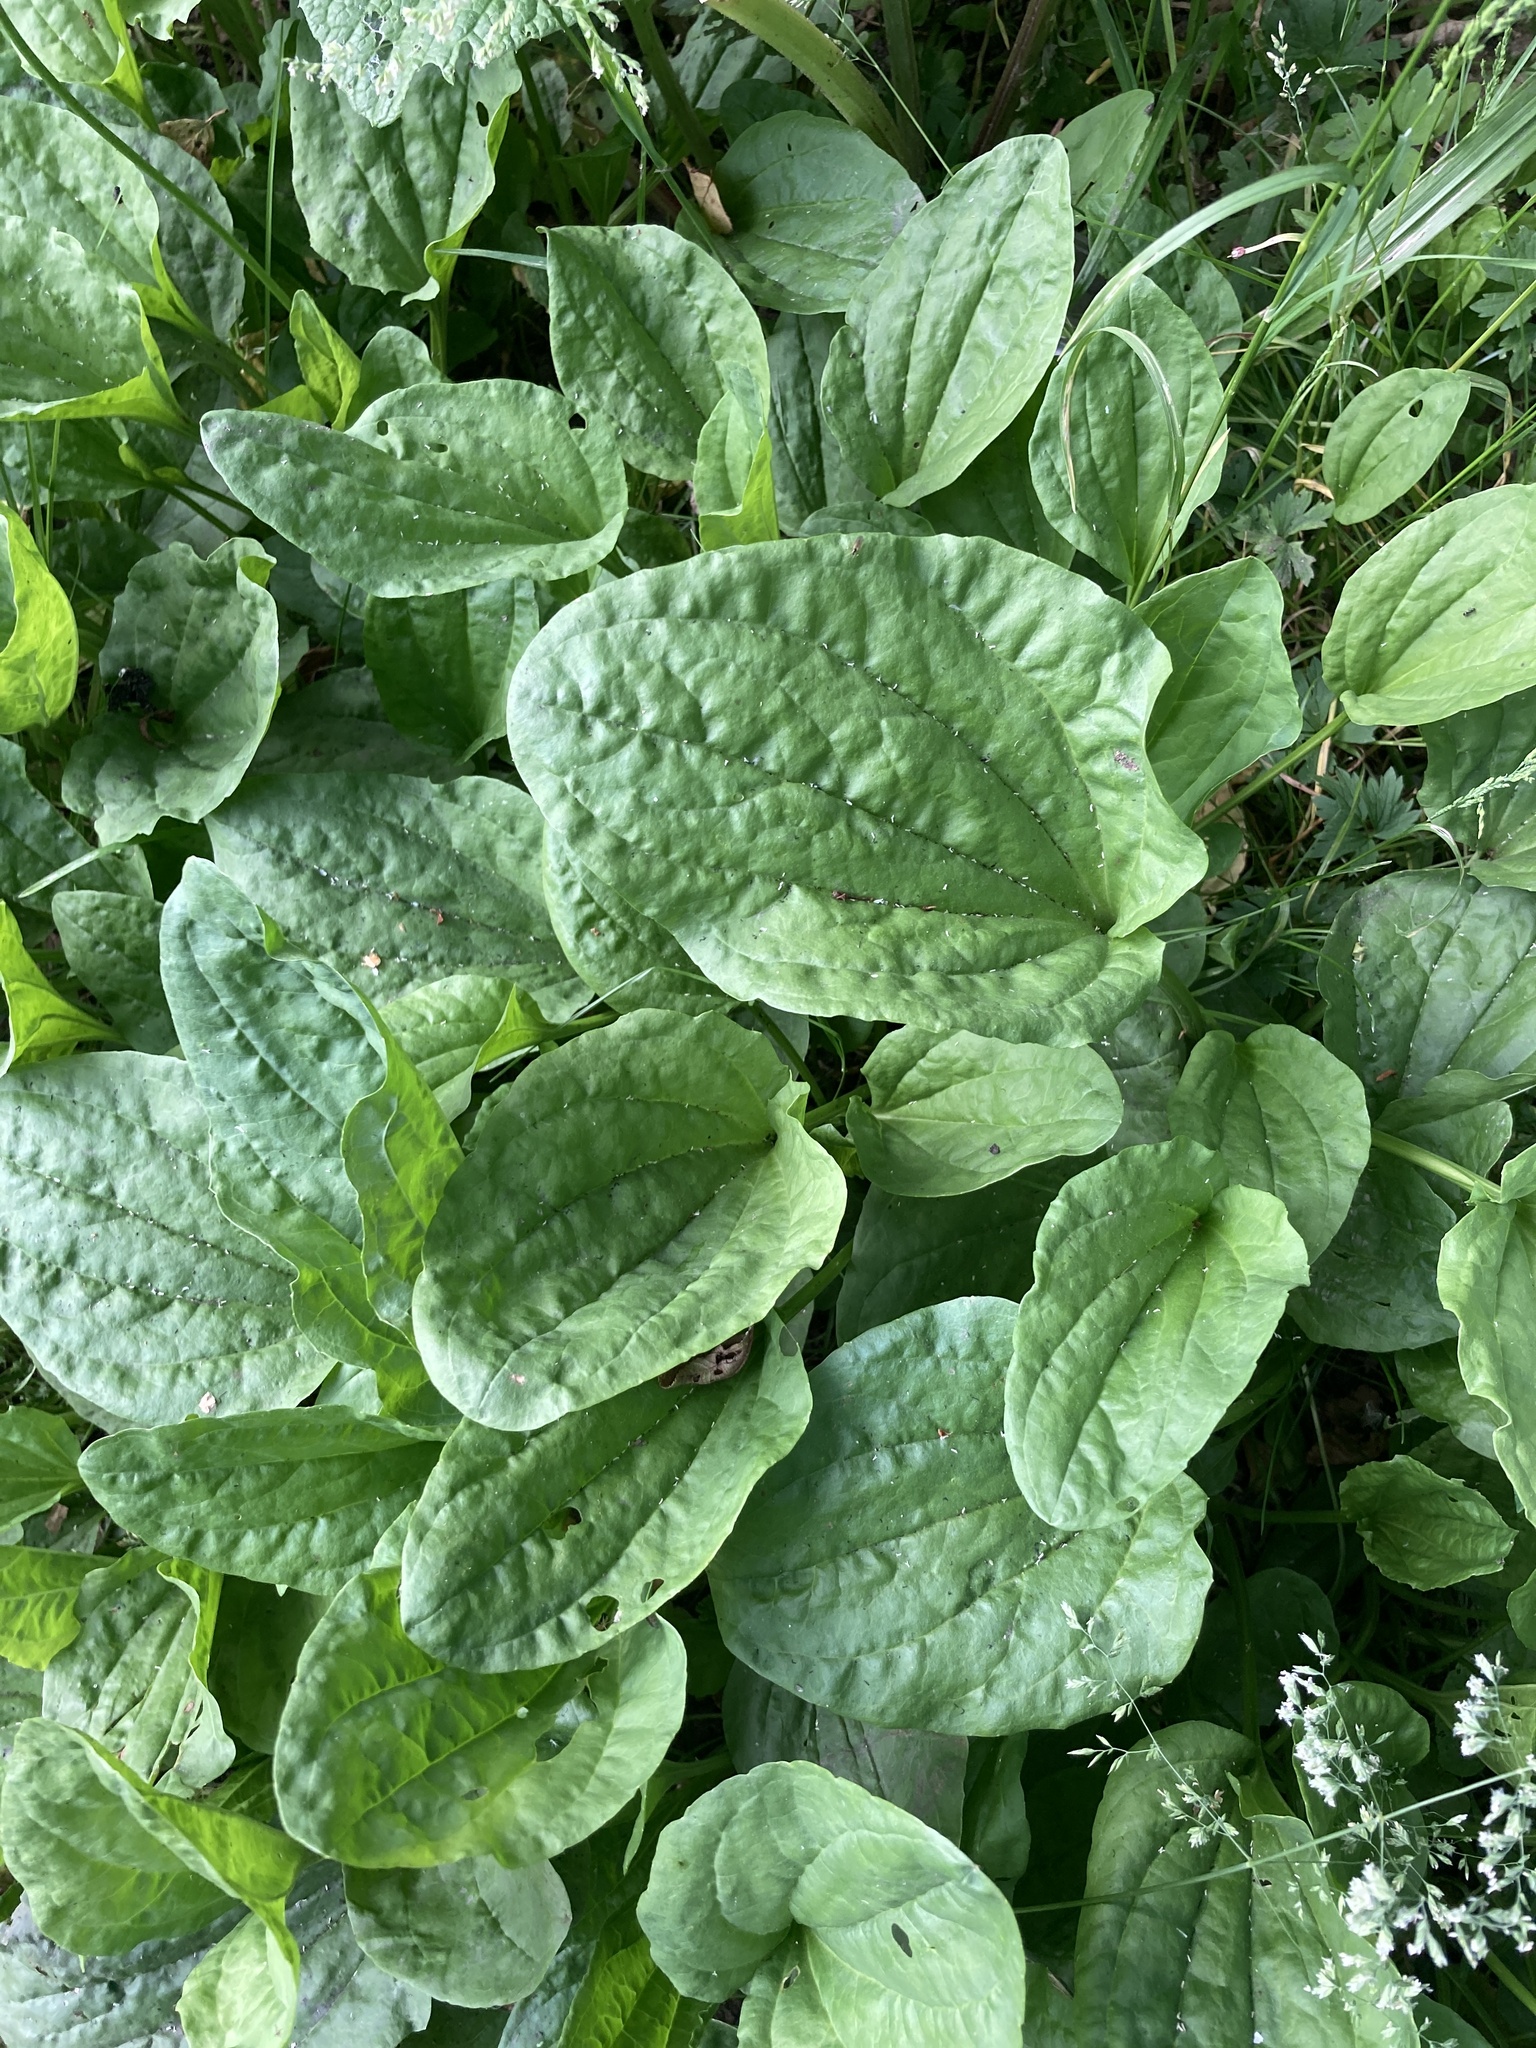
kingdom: Plantae
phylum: Tracheophyta
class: Magnoliopsida
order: Lamiales
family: Plantaginaceae
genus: Plantago
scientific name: Plantago major
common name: Common plantain
